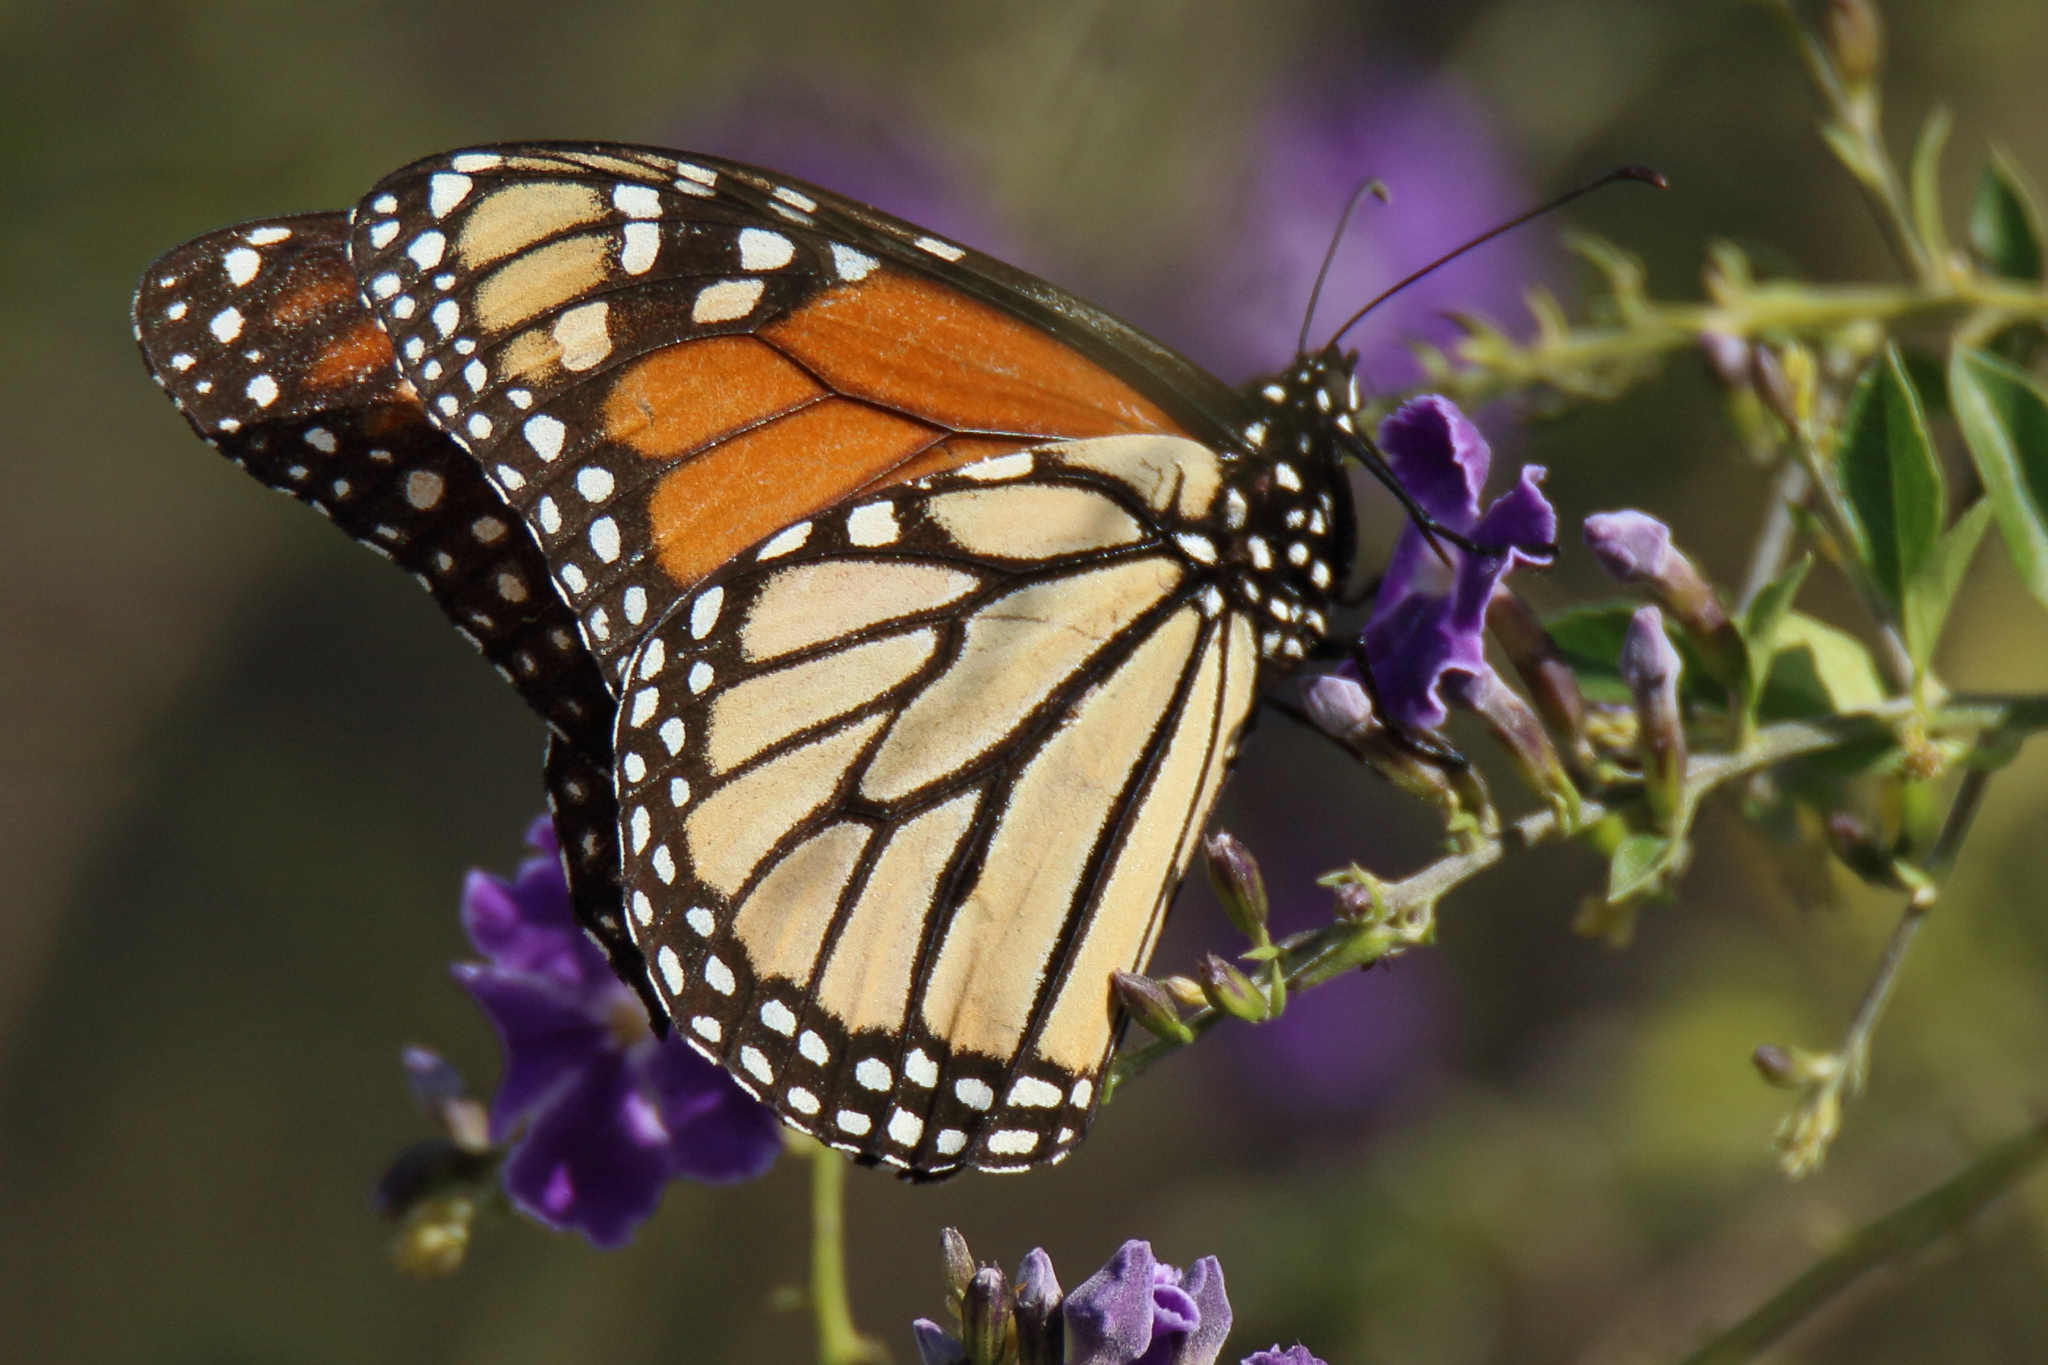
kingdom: Animalia
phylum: Arthropoda
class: Insecta
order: Lepidoptera
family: Nymphalidae
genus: Danaus
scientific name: Danaus plexippus
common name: Monarch
